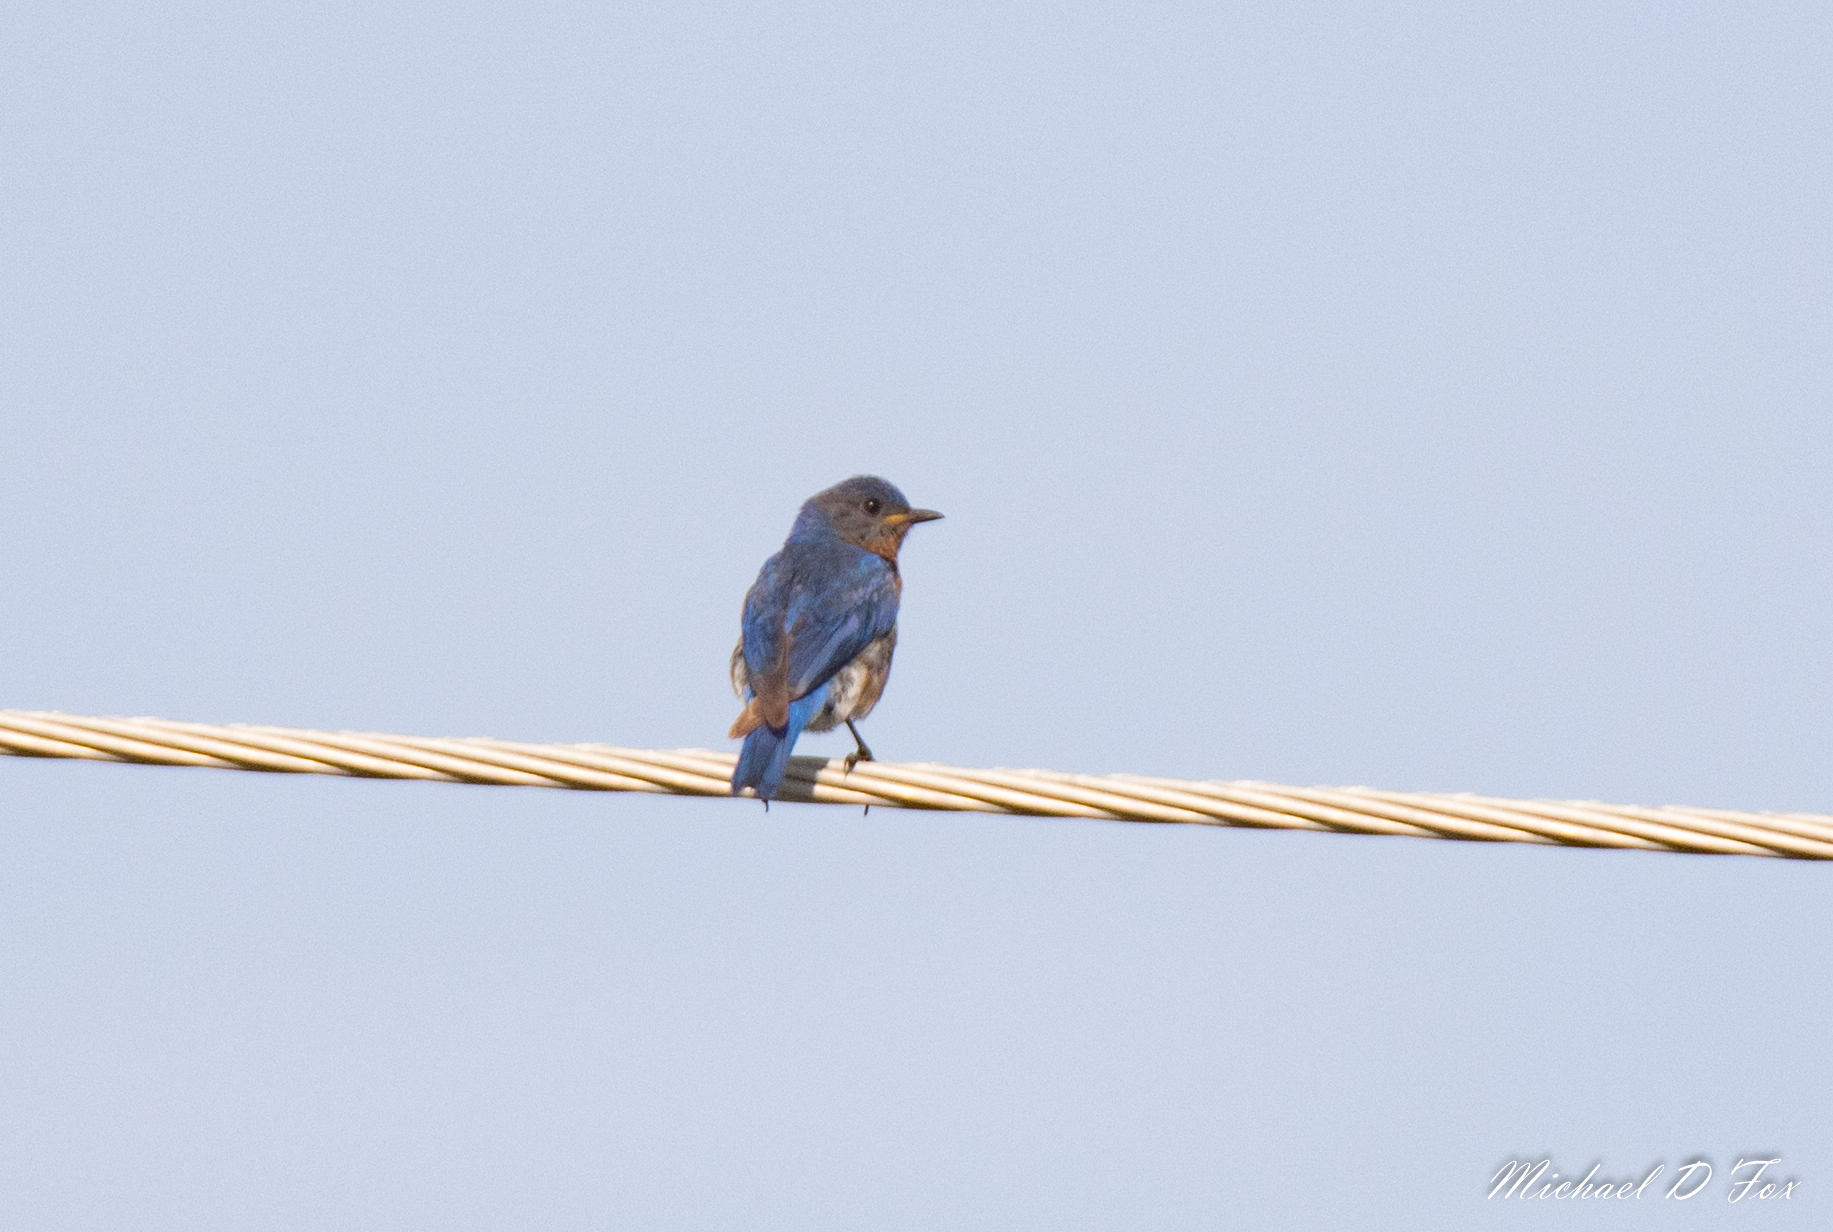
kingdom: Animalia
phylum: Chordata
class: Aves
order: Passeriformes
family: Turdidae
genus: Sialia
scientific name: Sialia sialis
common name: Eastern bluebird
